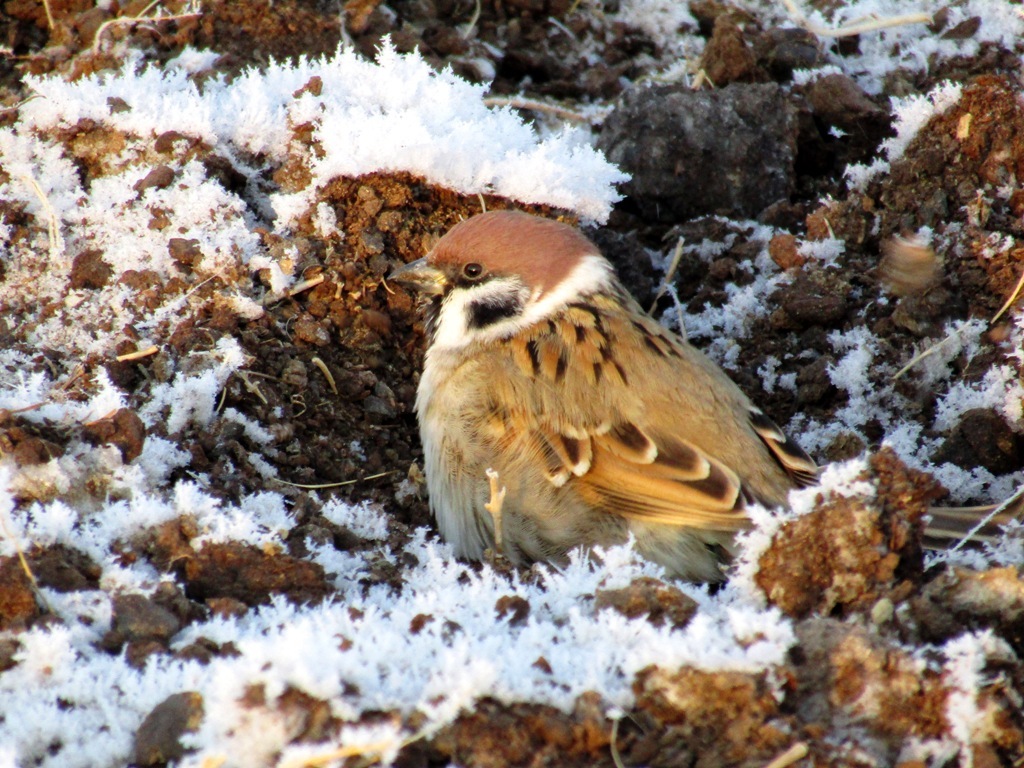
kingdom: Animalia
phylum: Chordata
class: Aves
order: Passeriformes
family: Passeridae
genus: Passer
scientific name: Passer montanus
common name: Eurasian tree sparrow
